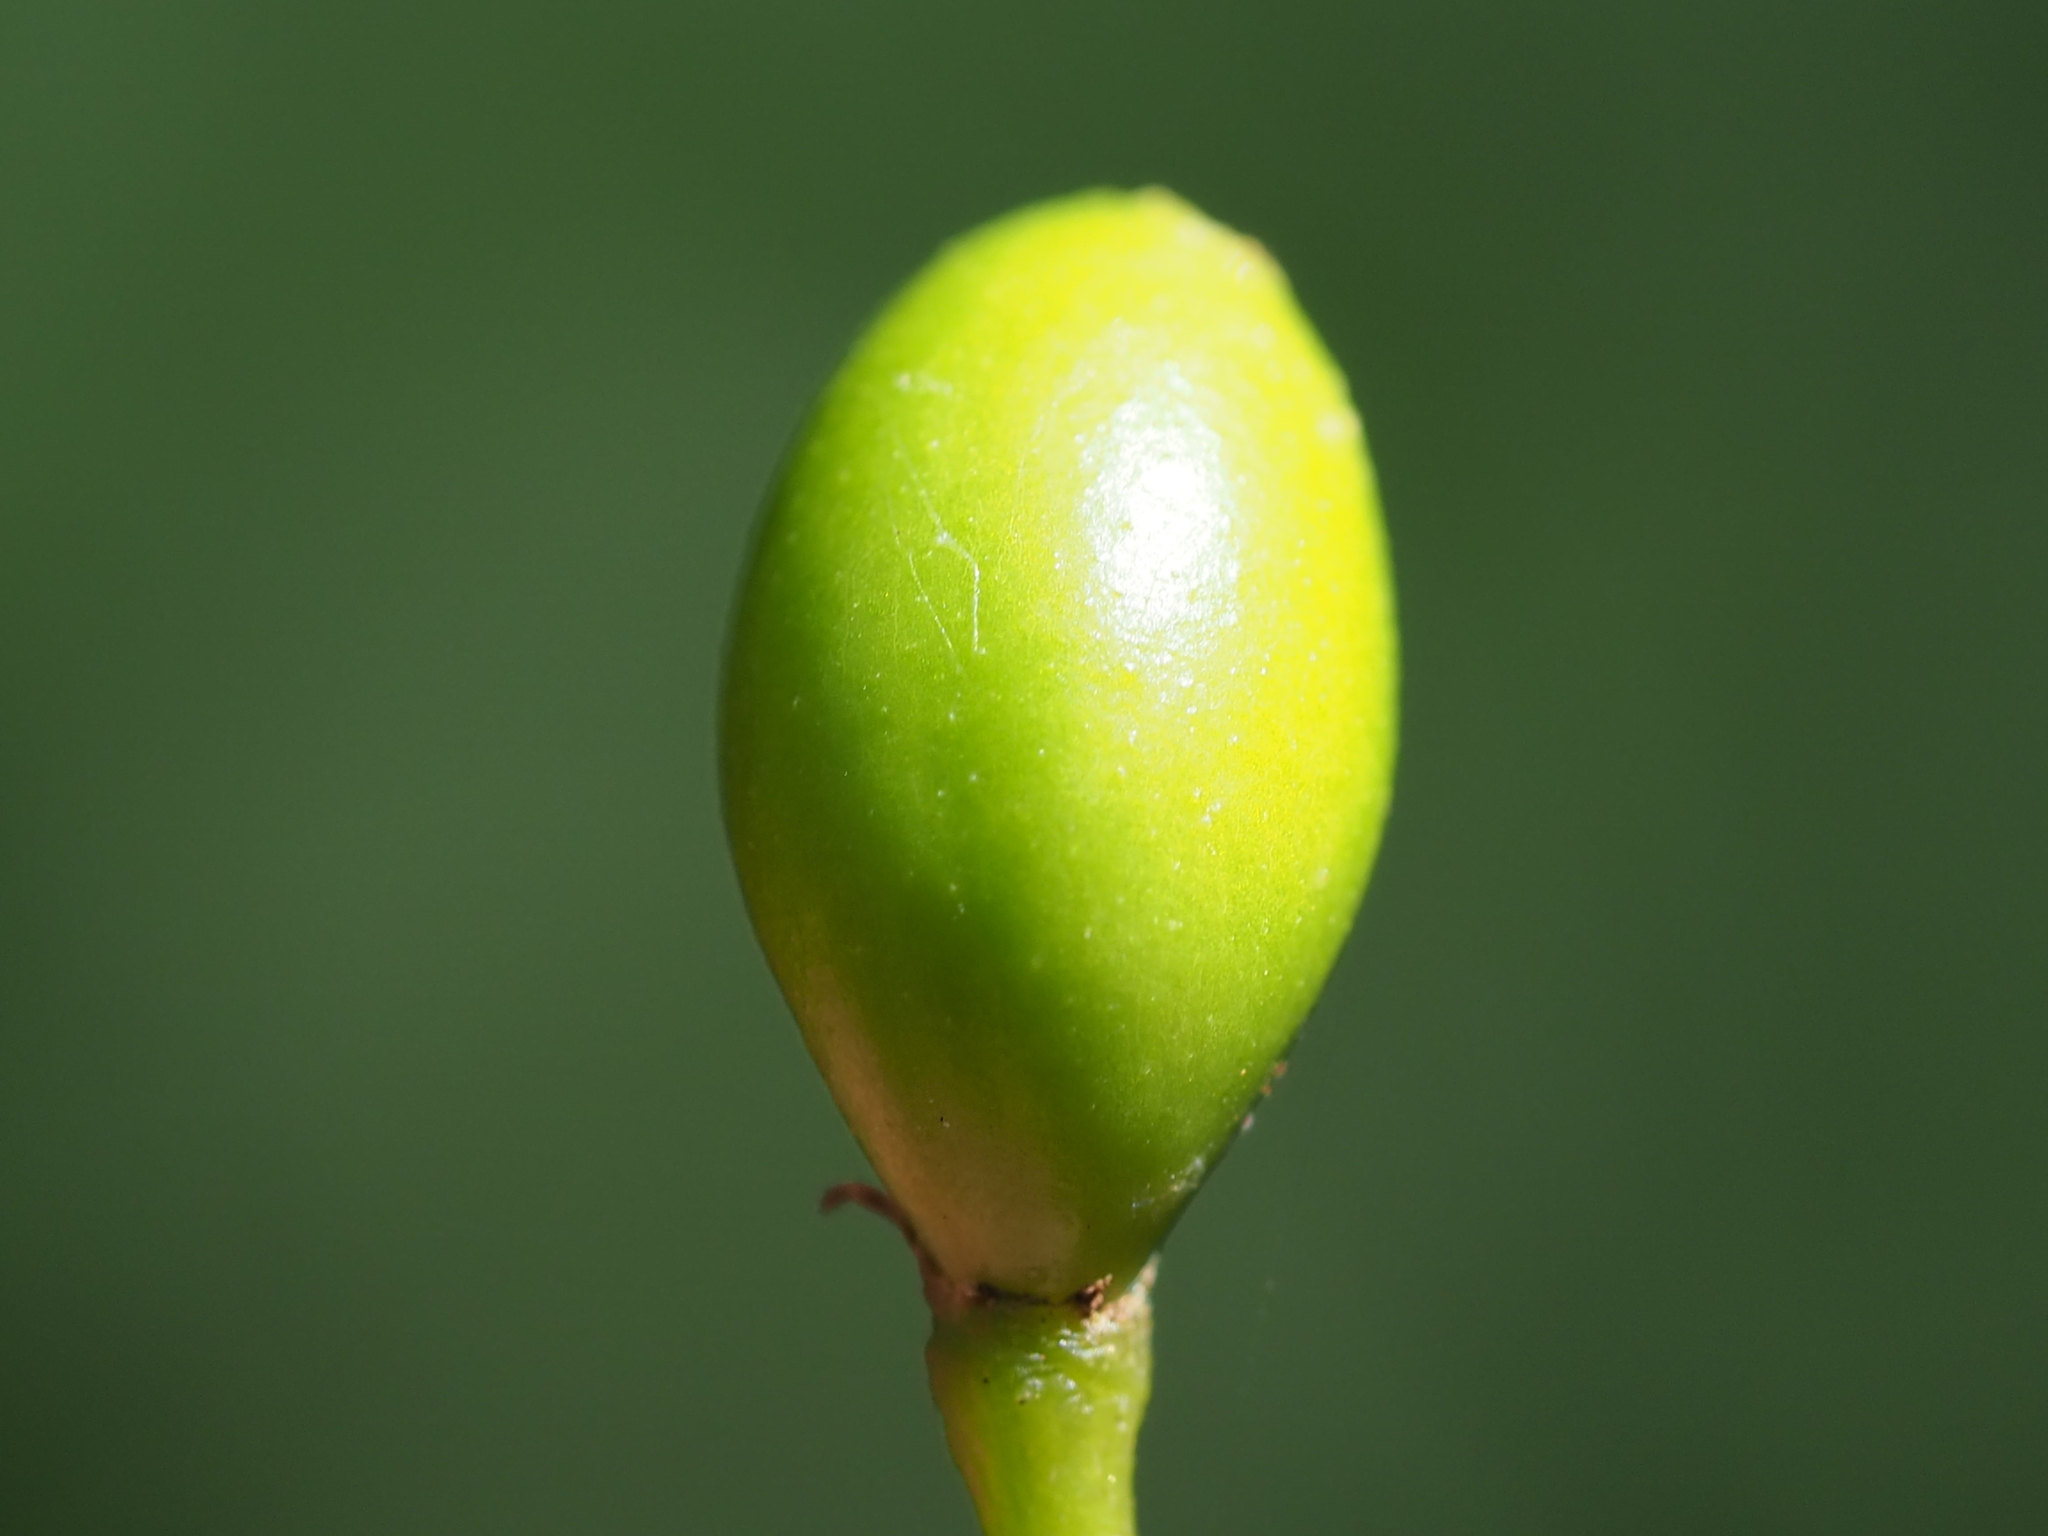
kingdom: Plantae
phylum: Tracheophyta
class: Magnoliopsida
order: Gentianales
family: Apocynaceae
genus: Rauvolfia
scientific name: Rauvolfia verticillata
